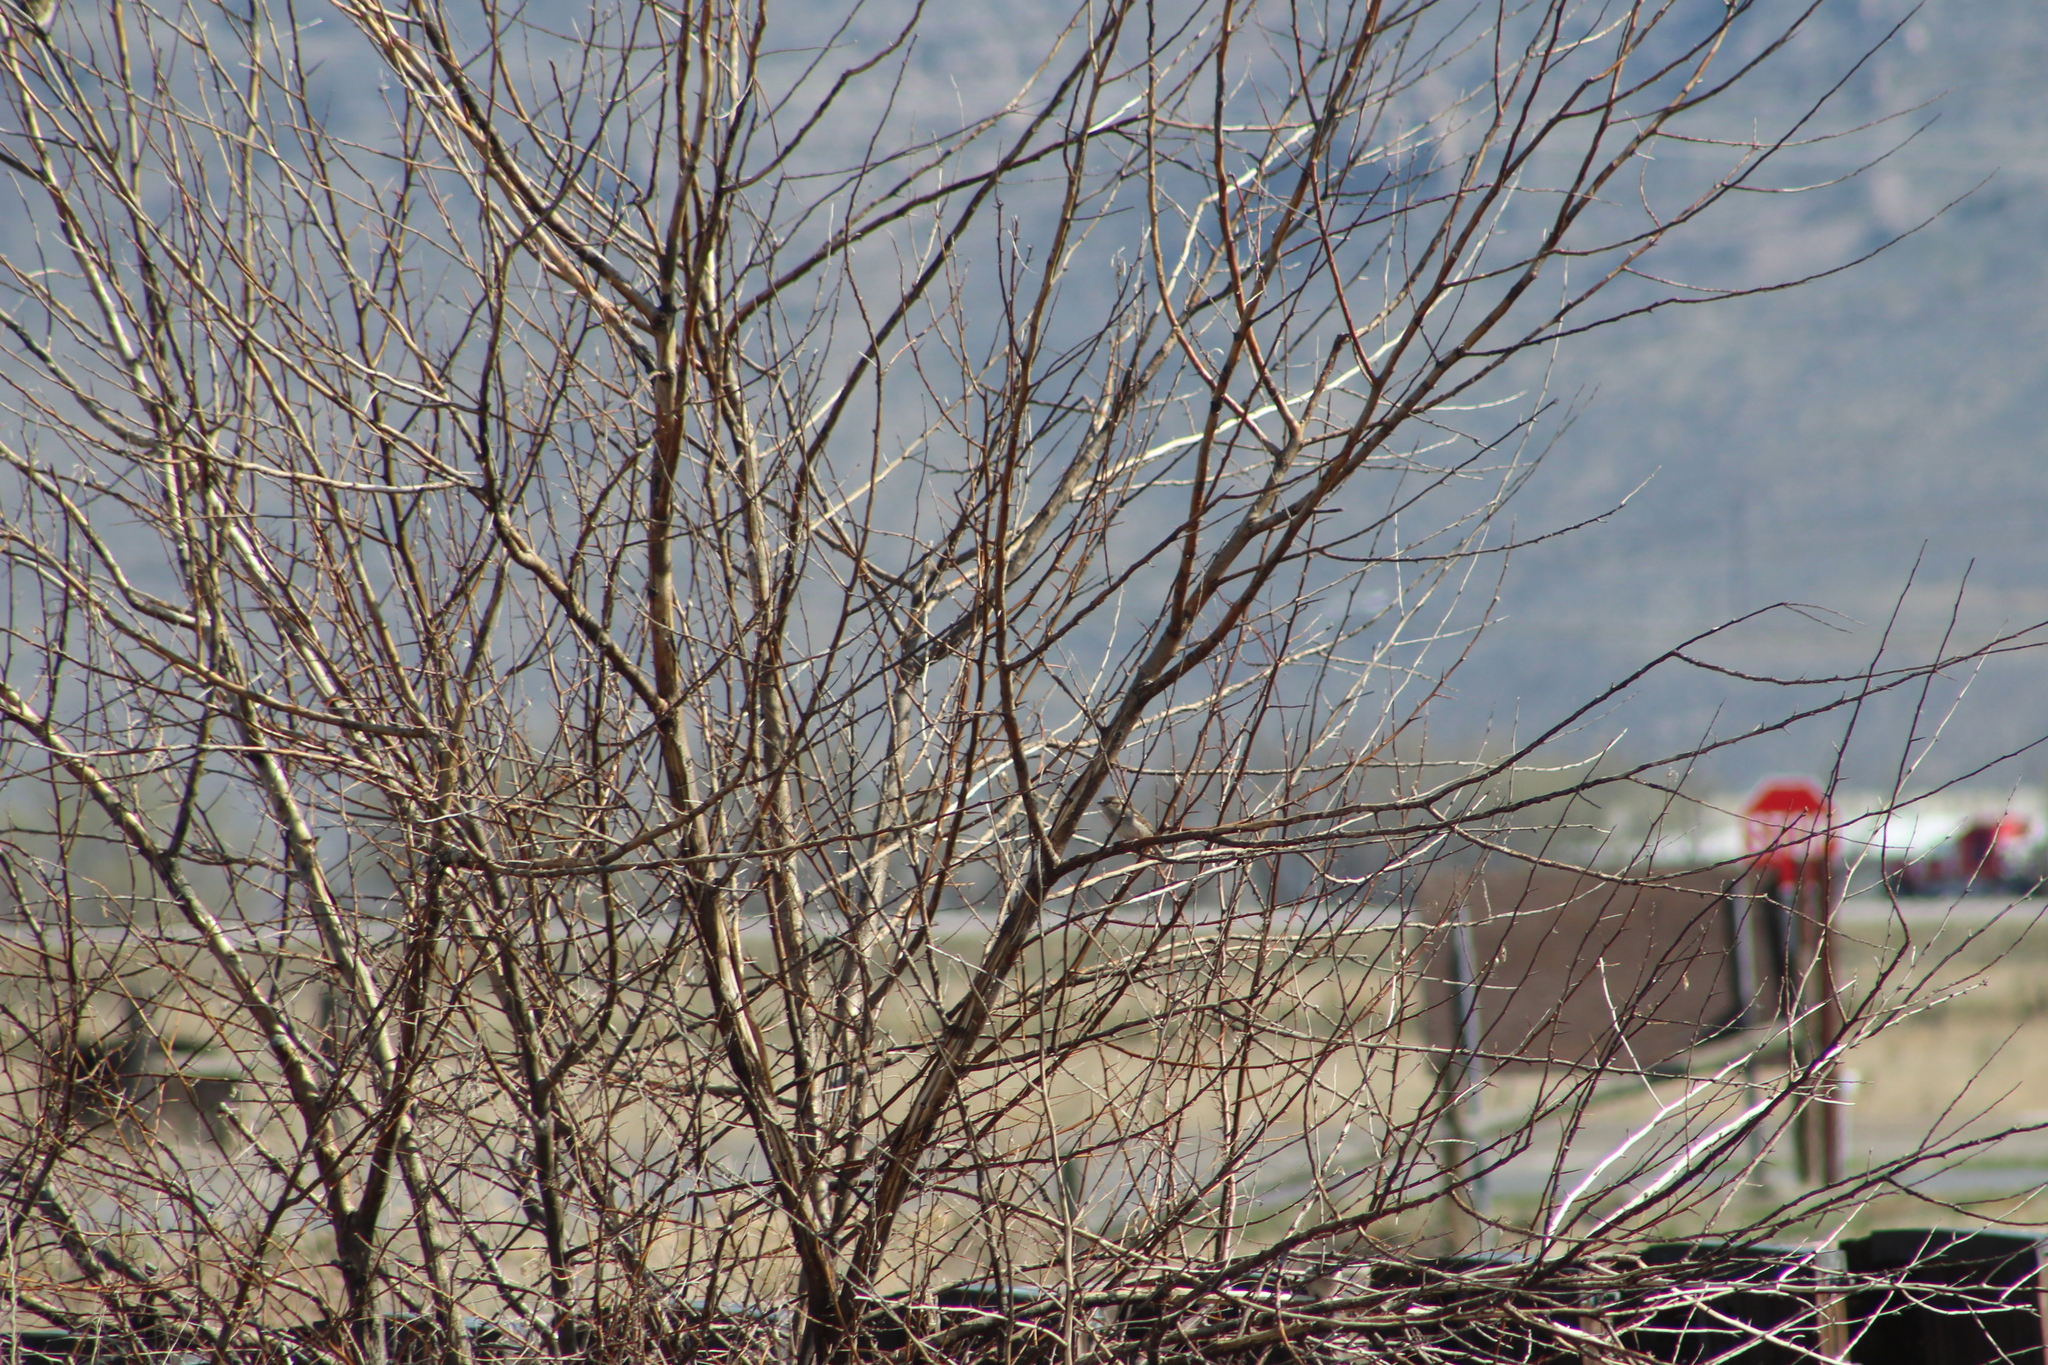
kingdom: Animalia
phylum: Chordata
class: Aves
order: Passeriformes
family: Passeridae
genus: Passer
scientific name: Passer domesticus
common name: House sparrow
